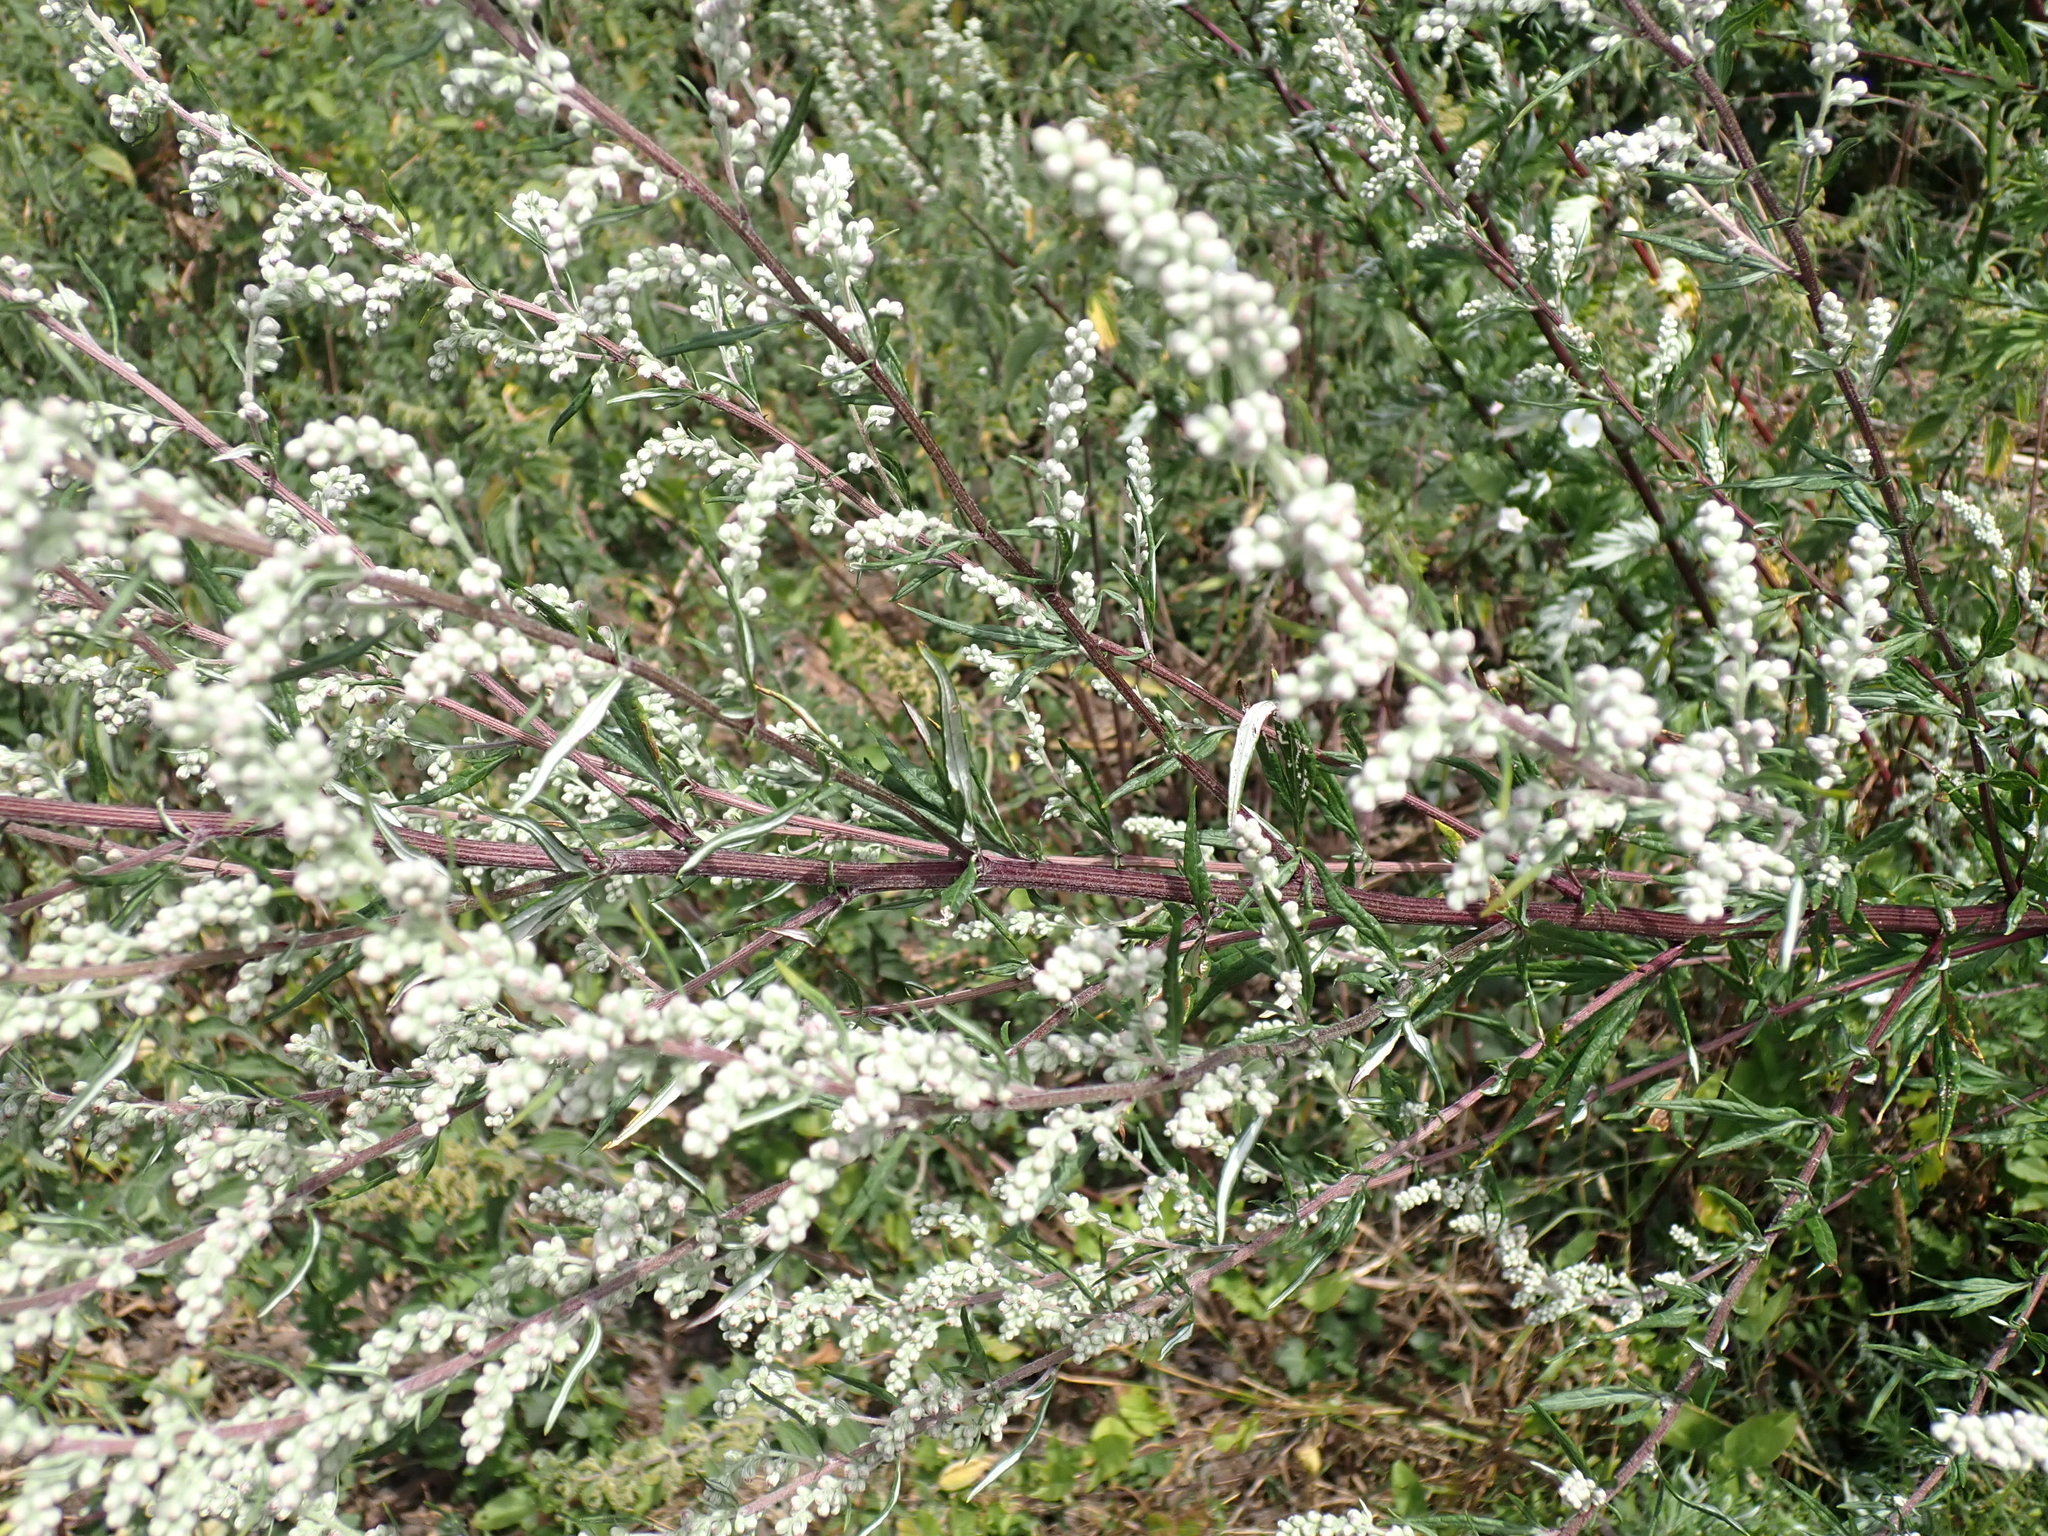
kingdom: Plantae
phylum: Tracheophyta
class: Magnoliopsida
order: Asterales
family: Asteraceae
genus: Artemisia
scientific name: Artemisia vulgaris
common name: Mugwort
